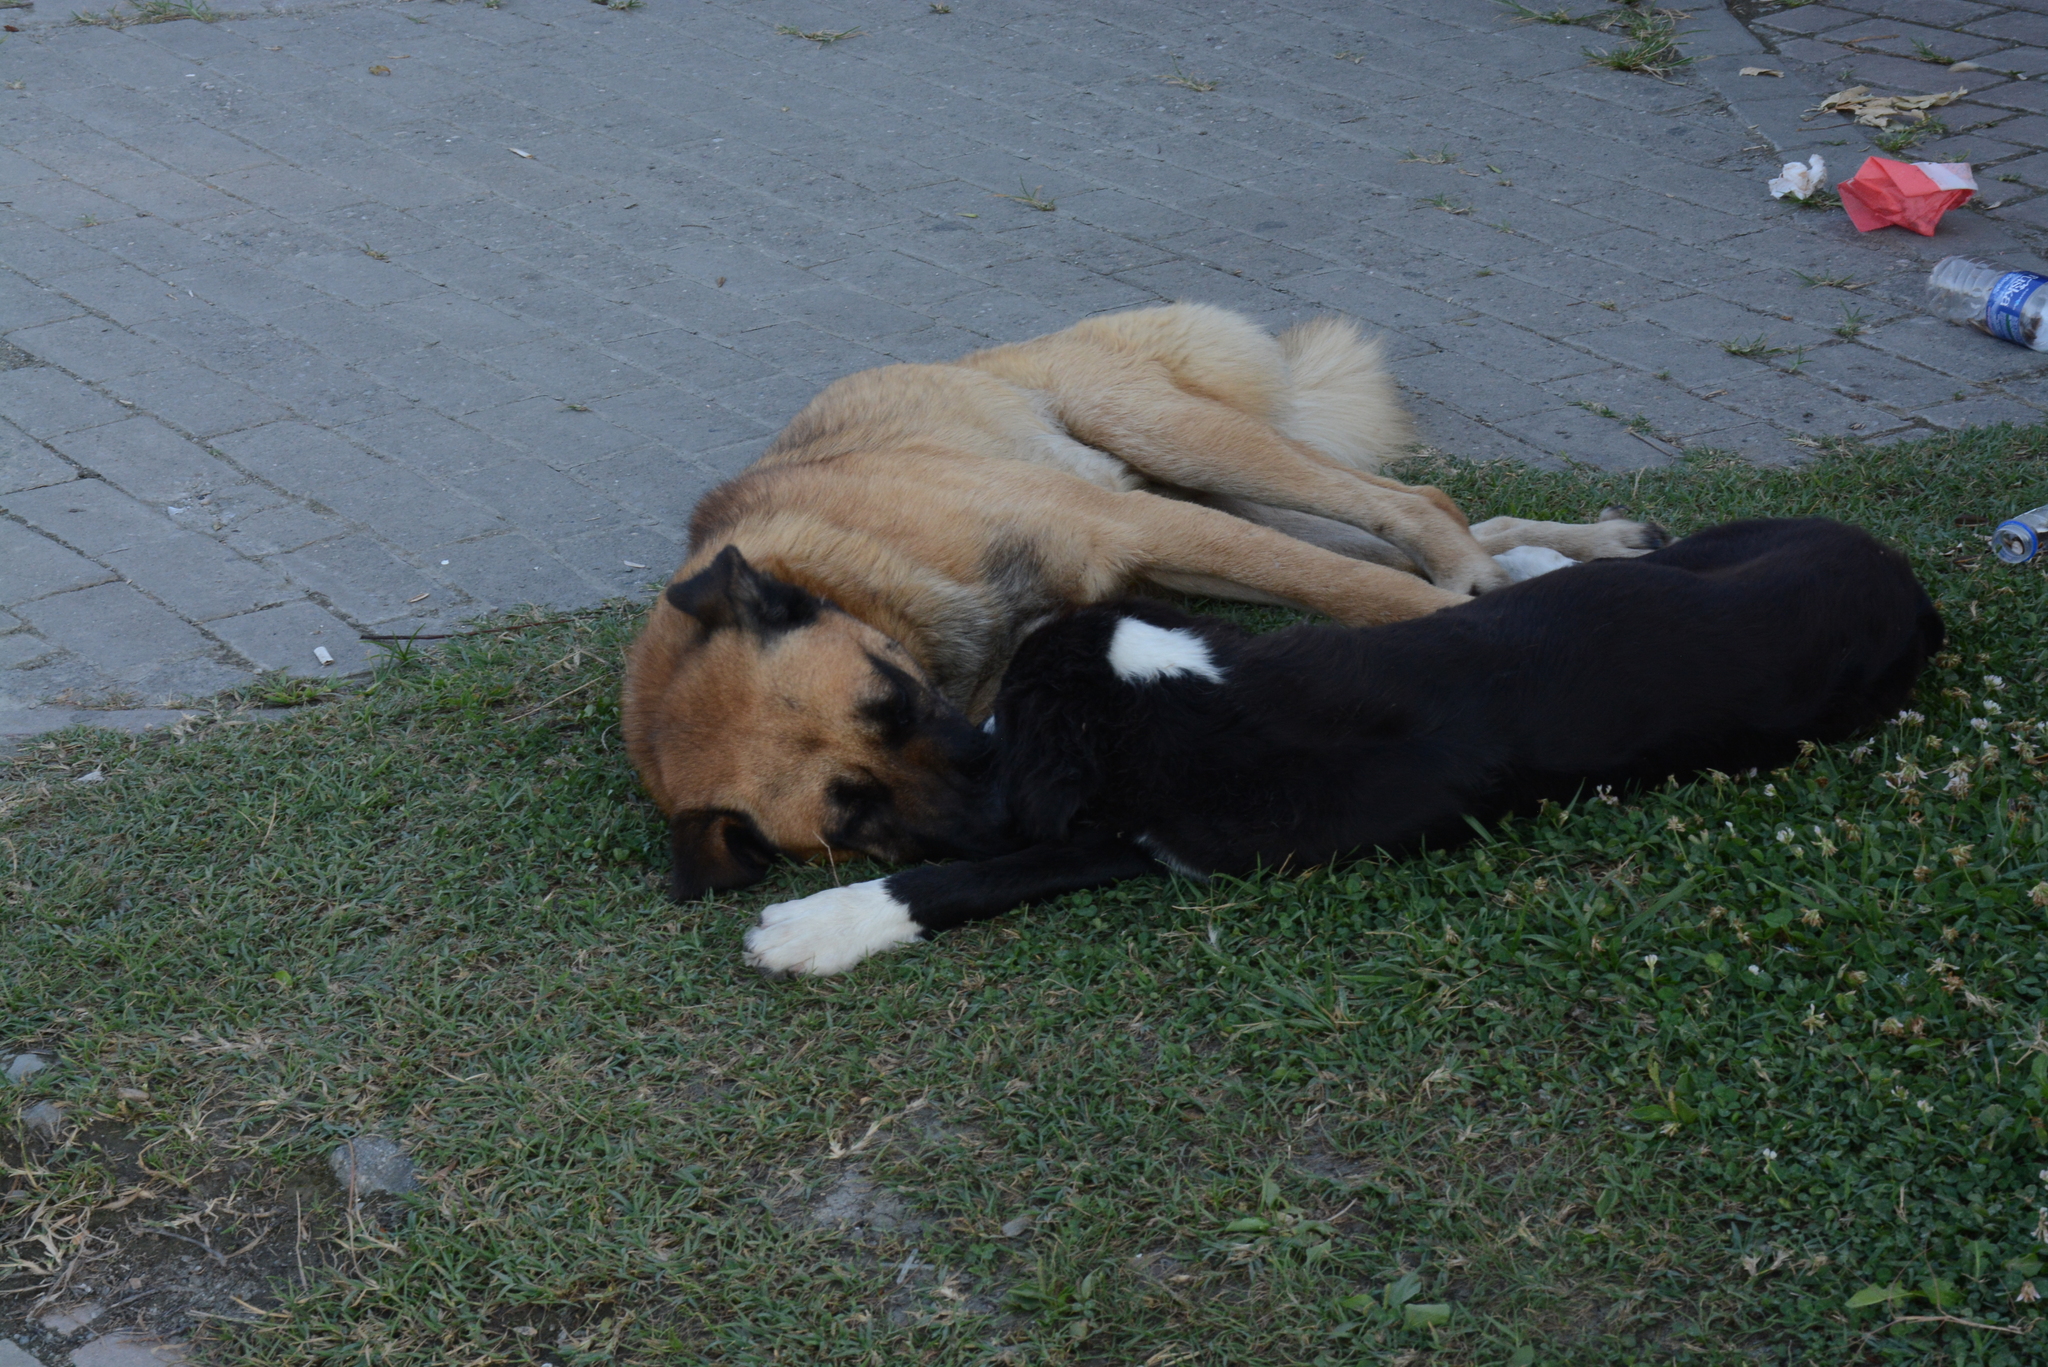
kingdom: Animalia
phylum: Chordata
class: Mammalia
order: Carnivora
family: Canidae
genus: Canis
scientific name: Canis lupus
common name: Gray wolf
